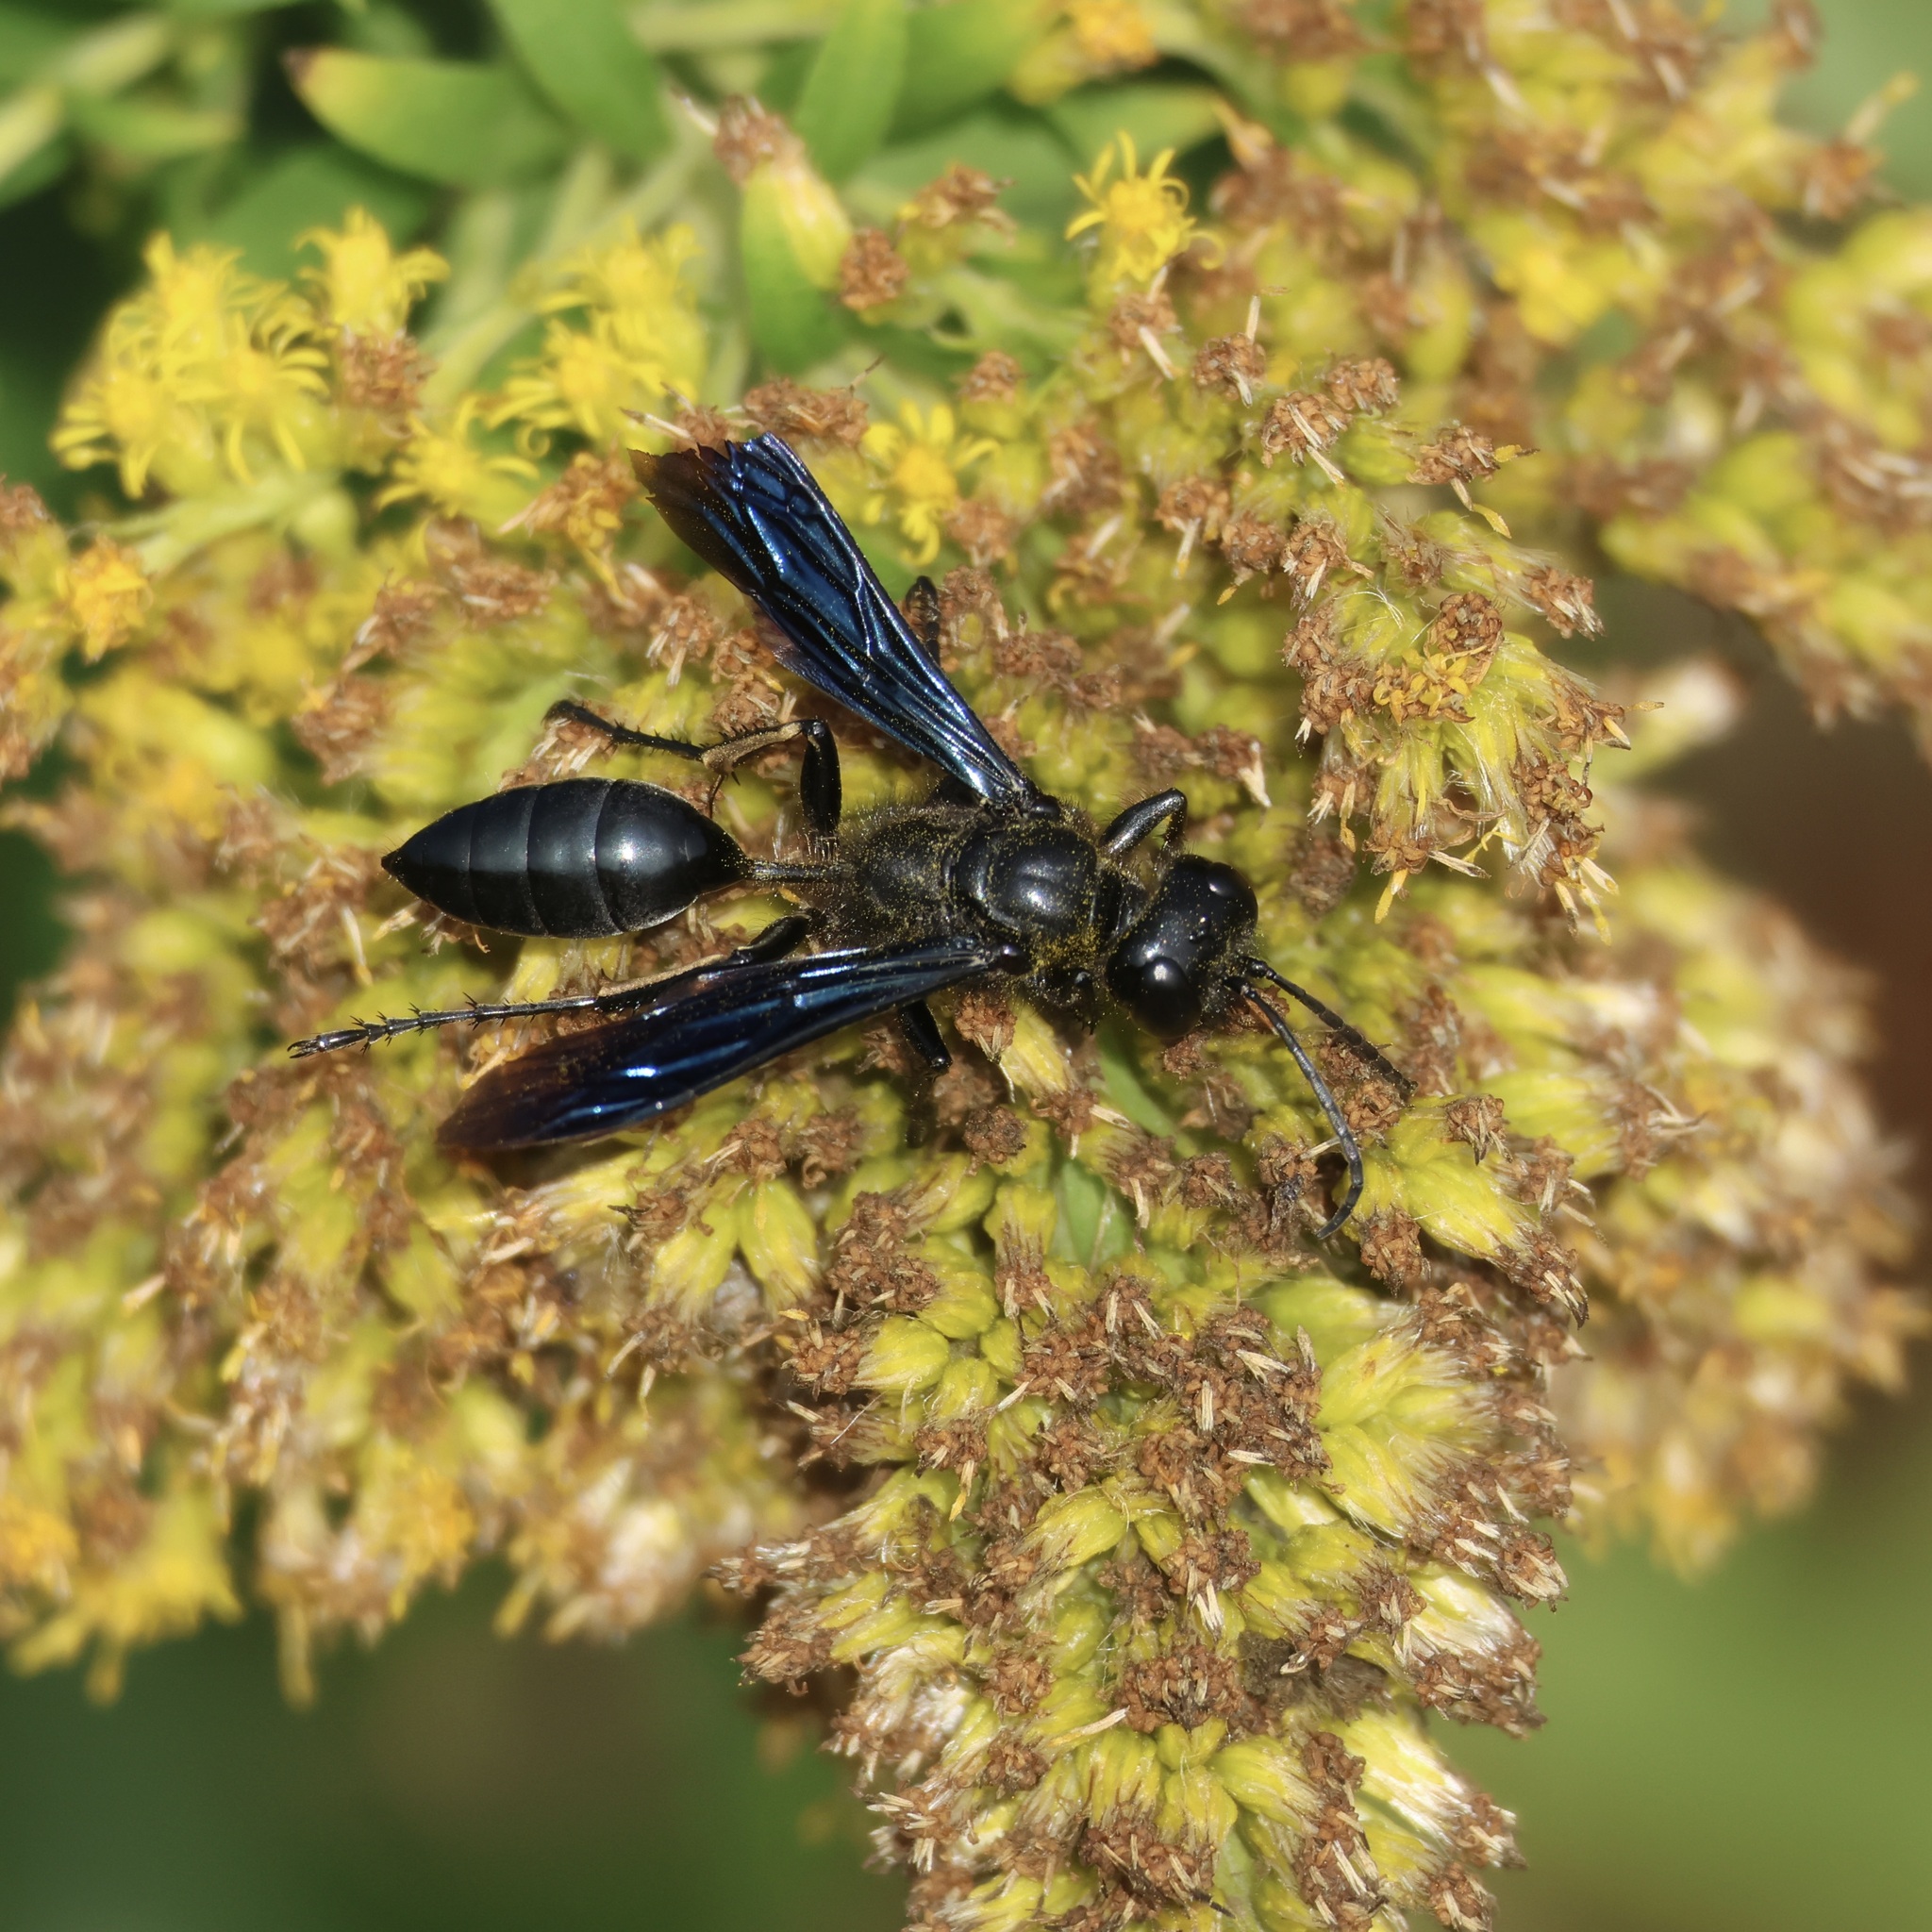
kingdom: Animalia
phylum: Arthropoda
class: Insecta
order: Hymenoptera
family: Sphecidae
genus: Isodontia
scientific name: Isodontia philadelphica
